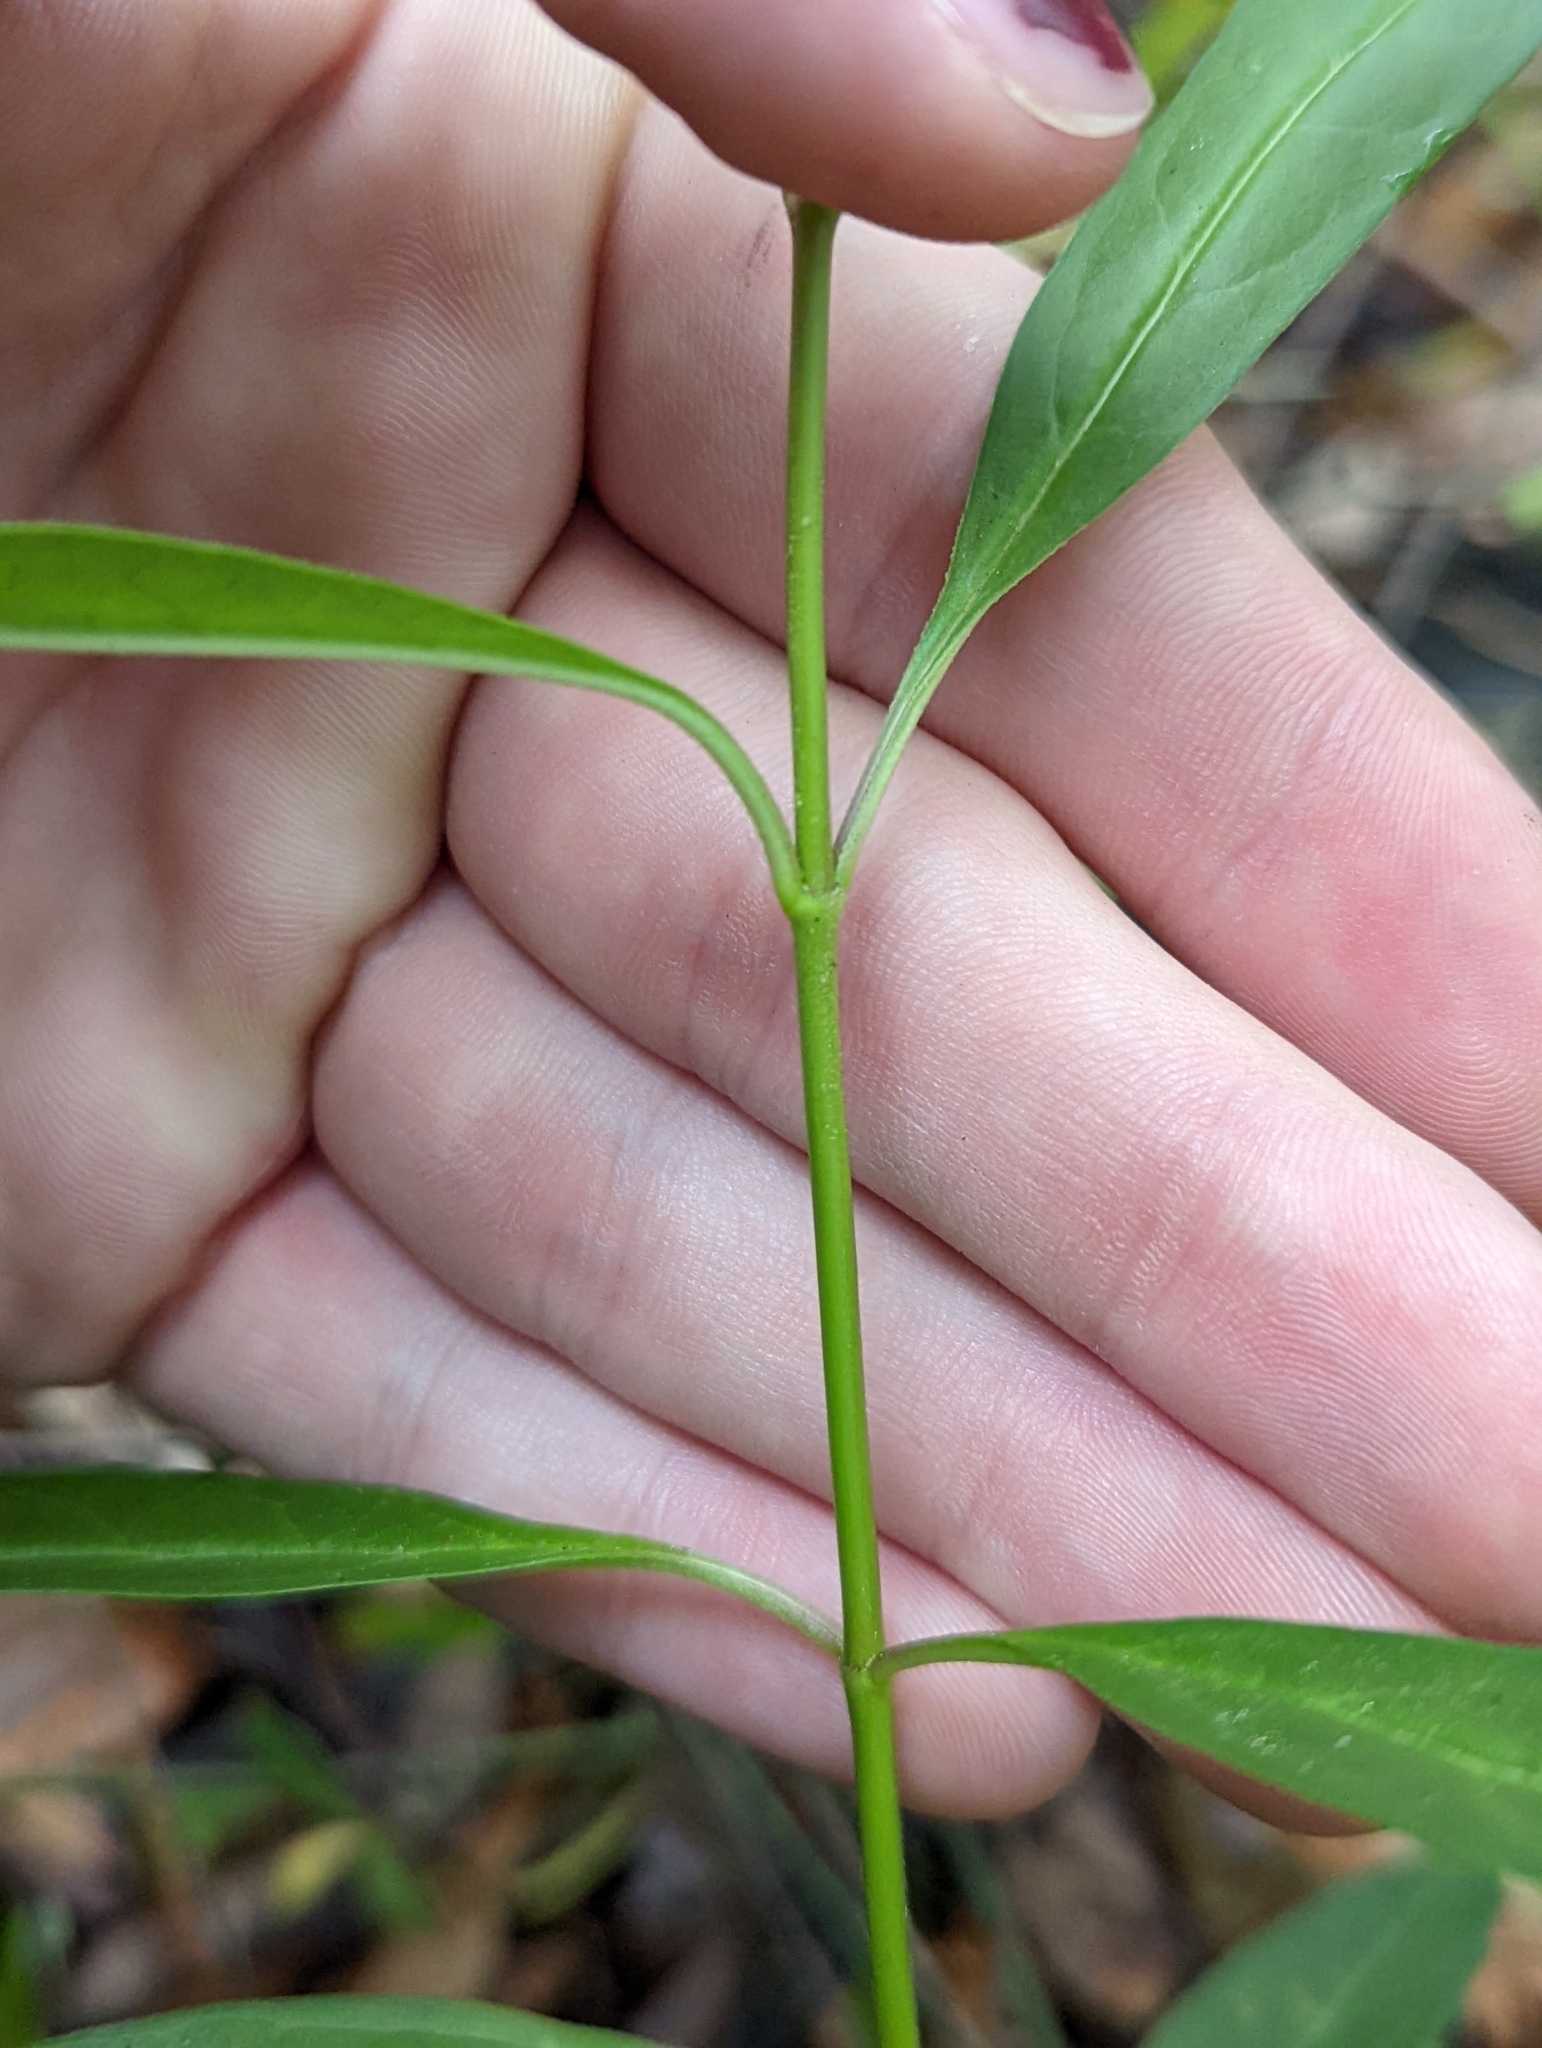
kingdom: Plantae
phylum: Tracheophyta
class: Magnoliopsida
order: Gentianales
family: Apocynaceae
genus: Asclepias
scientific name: Asclepias perennis
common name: Smooth-seed milkweed
